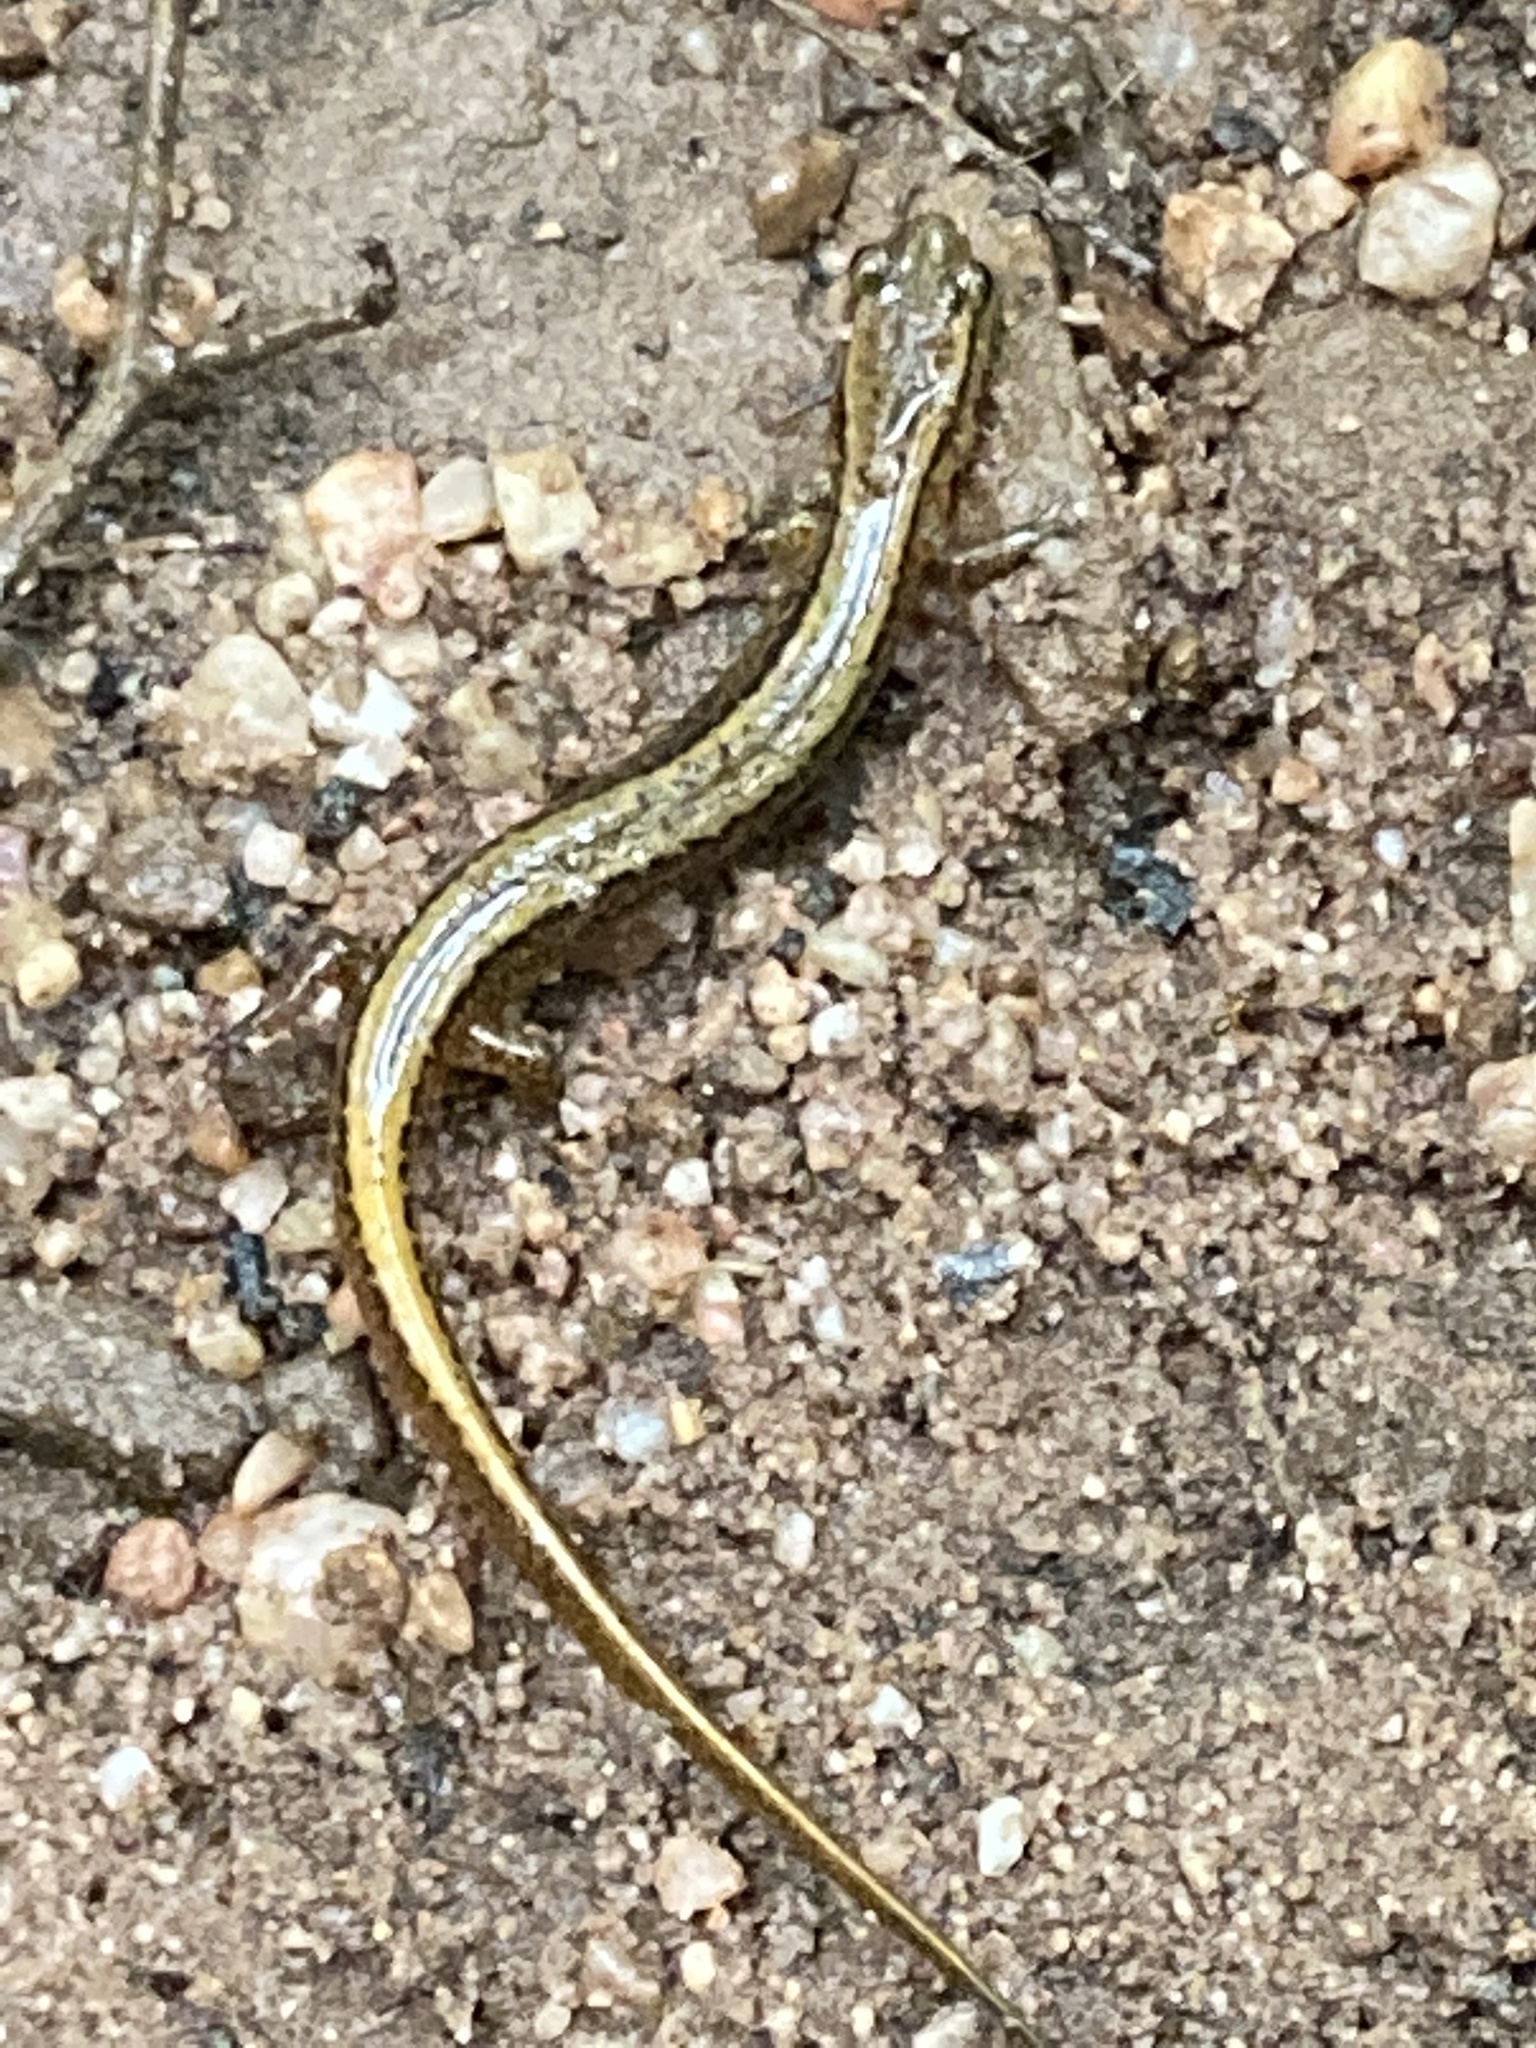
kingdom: Animalia
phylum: Chordata
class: Amphibia
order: Caudata
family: Plethodontidae
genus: Eurycea
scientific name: Eurycea bislineata
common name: Northern two-lined salamander
